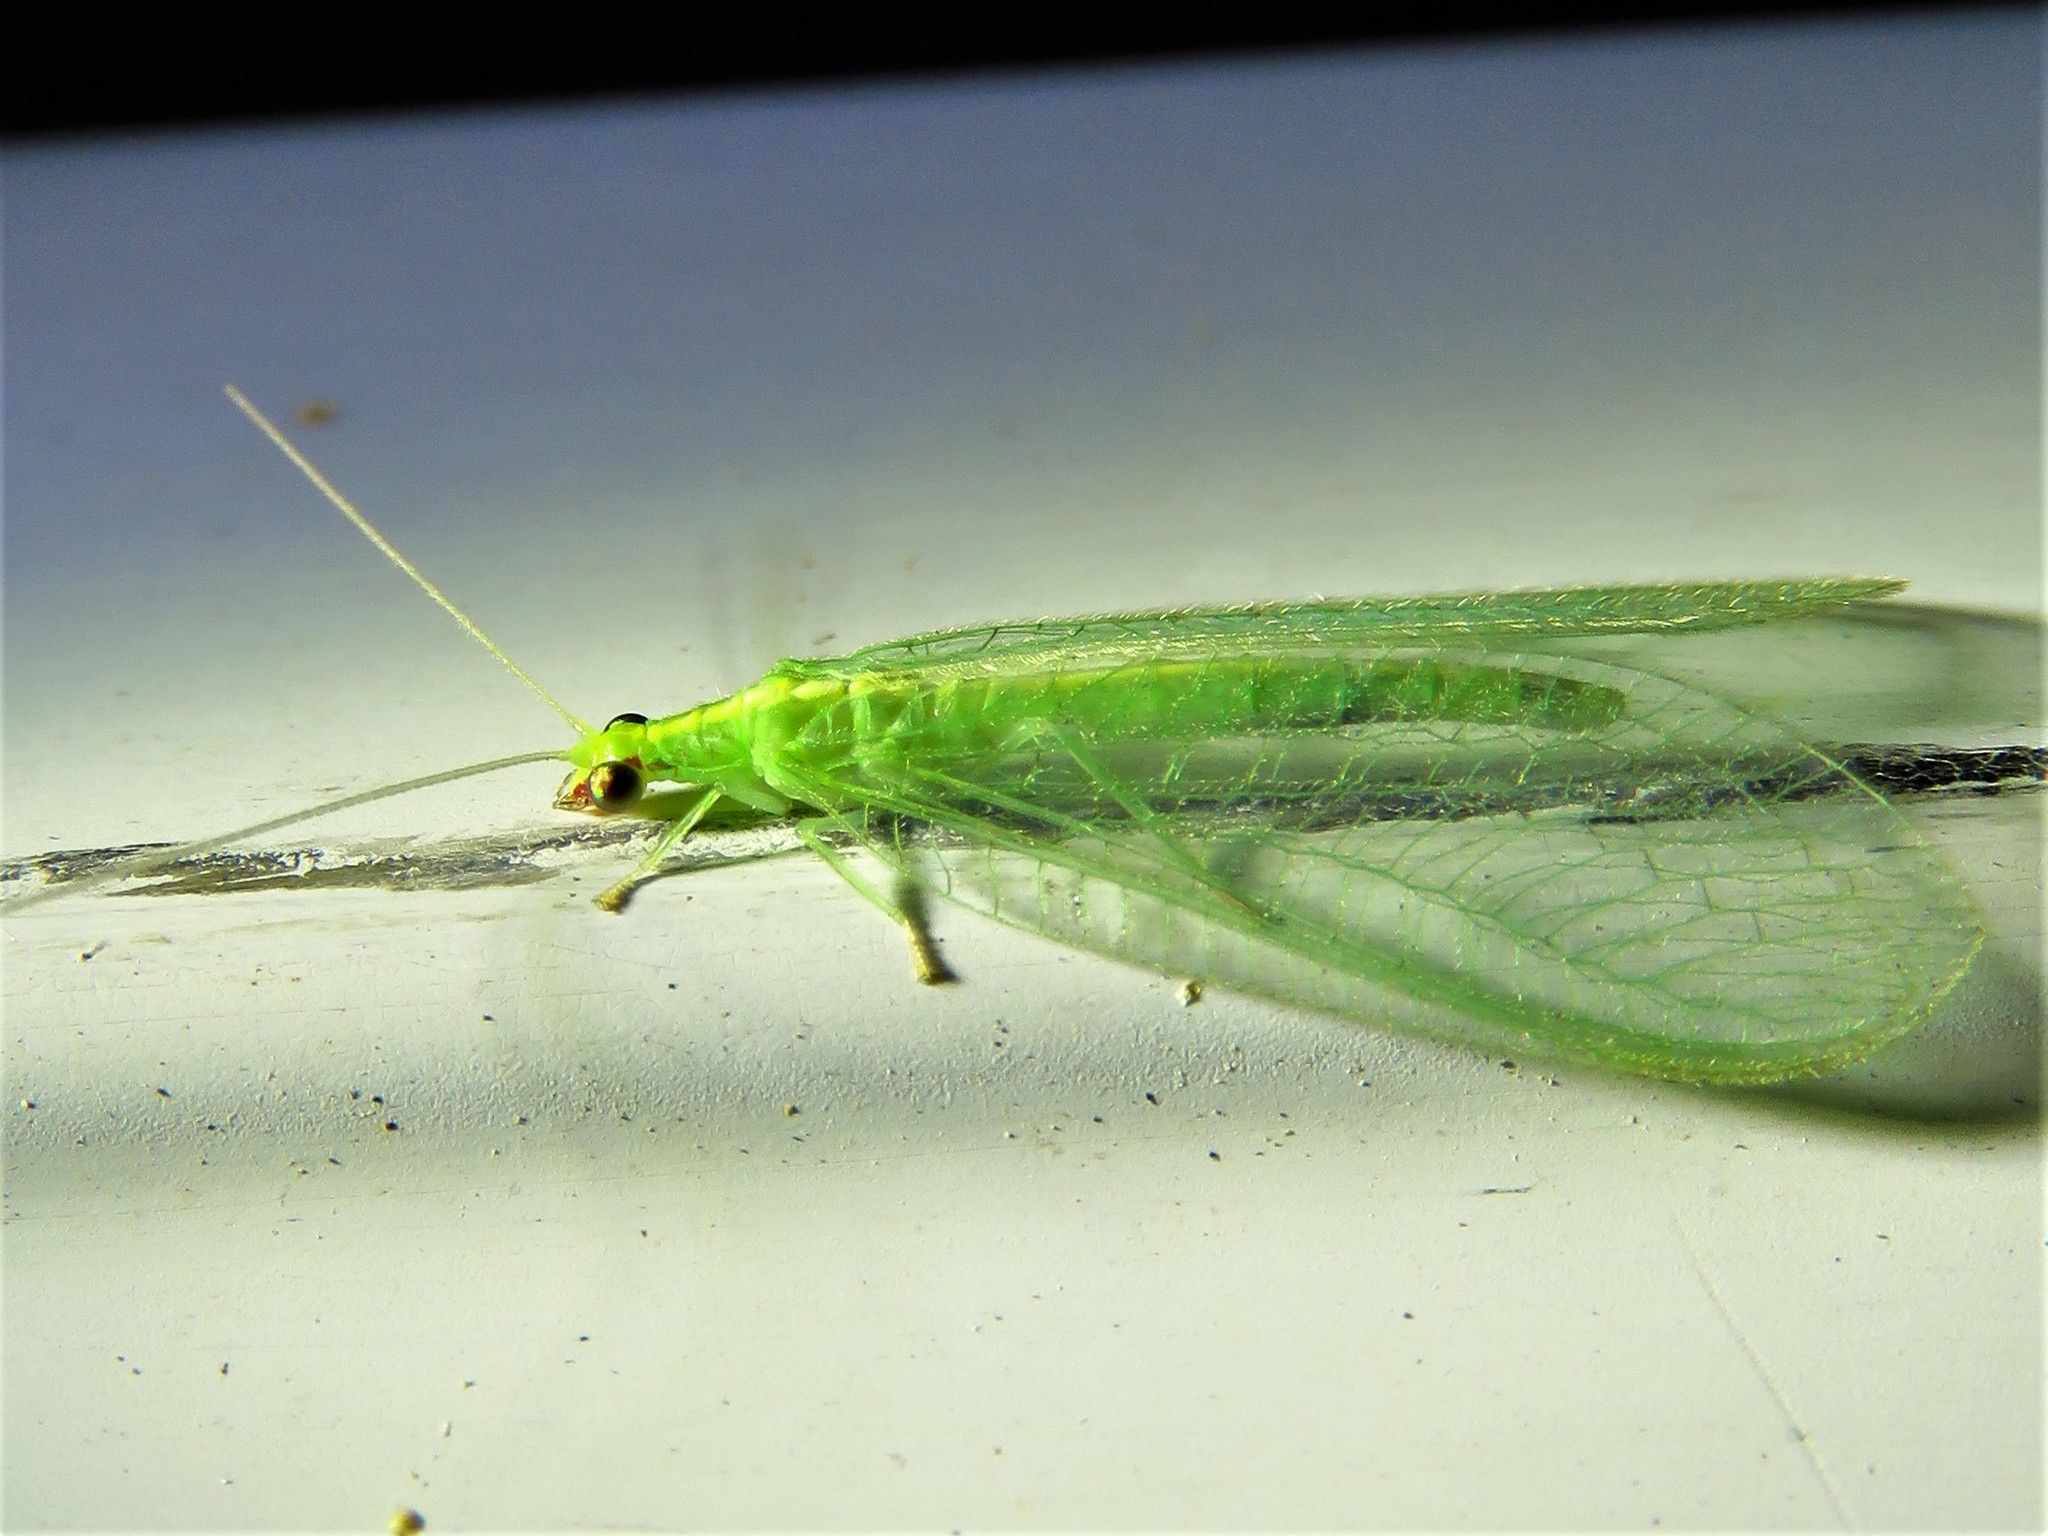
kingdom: Animalia
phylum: Arthropoda
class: Insecta
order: Neuroptera
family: Chrysopidae
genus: Chrysoperla
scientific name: Chrysoperla rufilabris
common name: Red-lipped green lacewing
